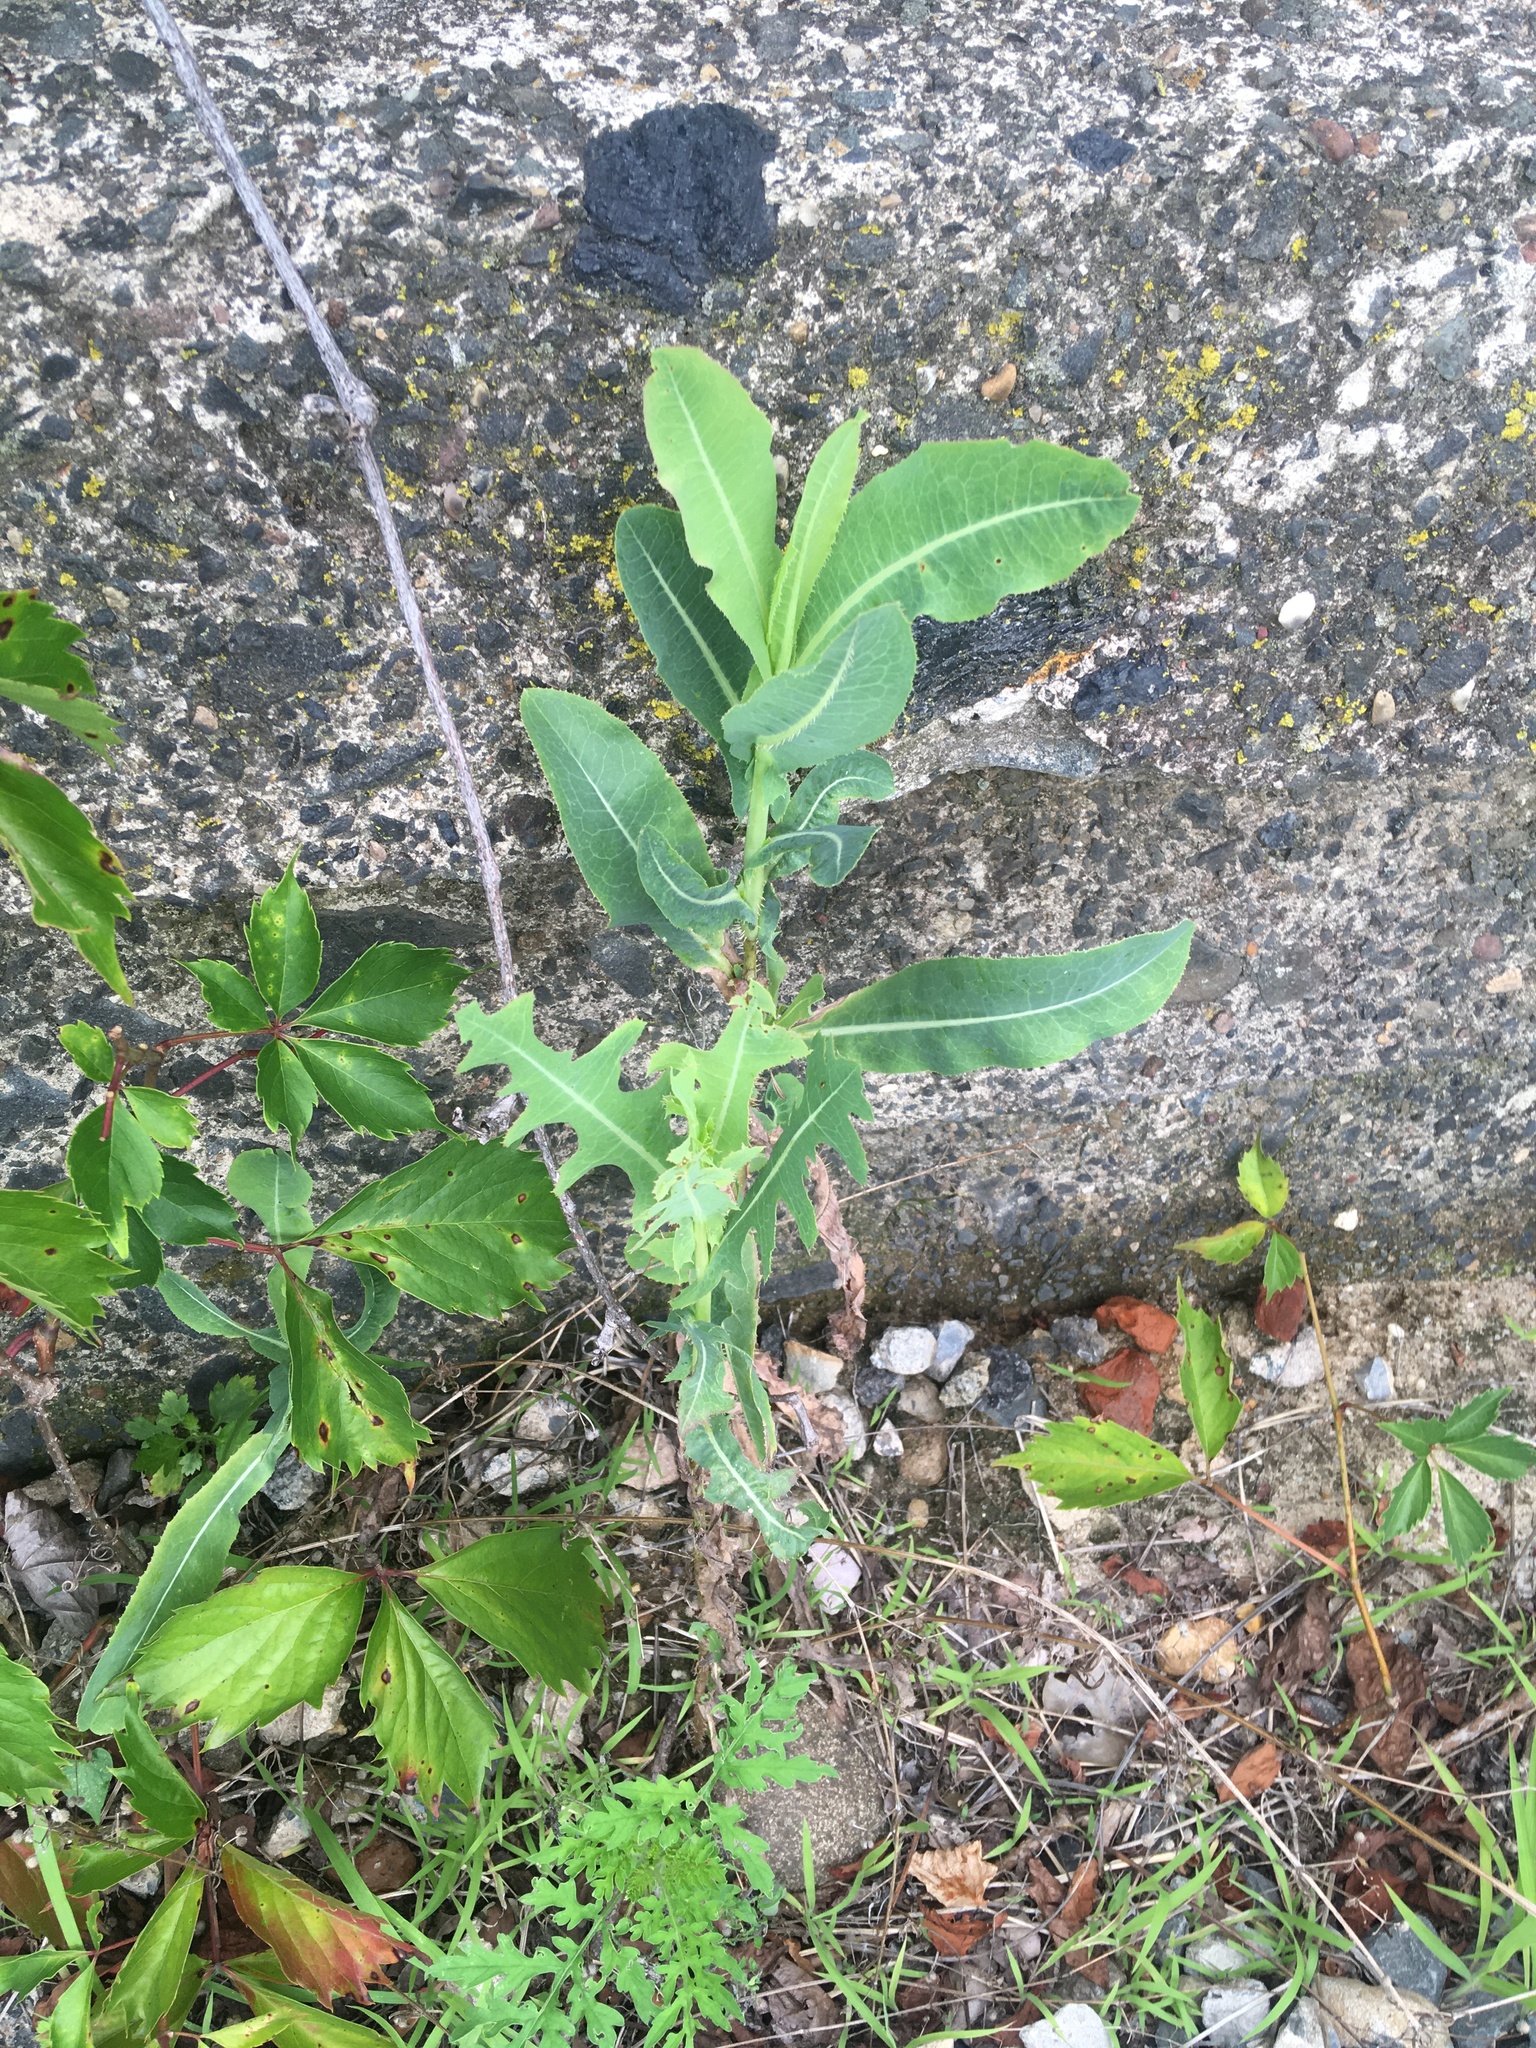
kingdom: Plantae
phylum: Tracheophyta
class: Magnoliopsida
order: Asterales
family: Asteraceae
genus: Lactuca
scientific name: Lactuca serriola
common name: Prickly lettuce
